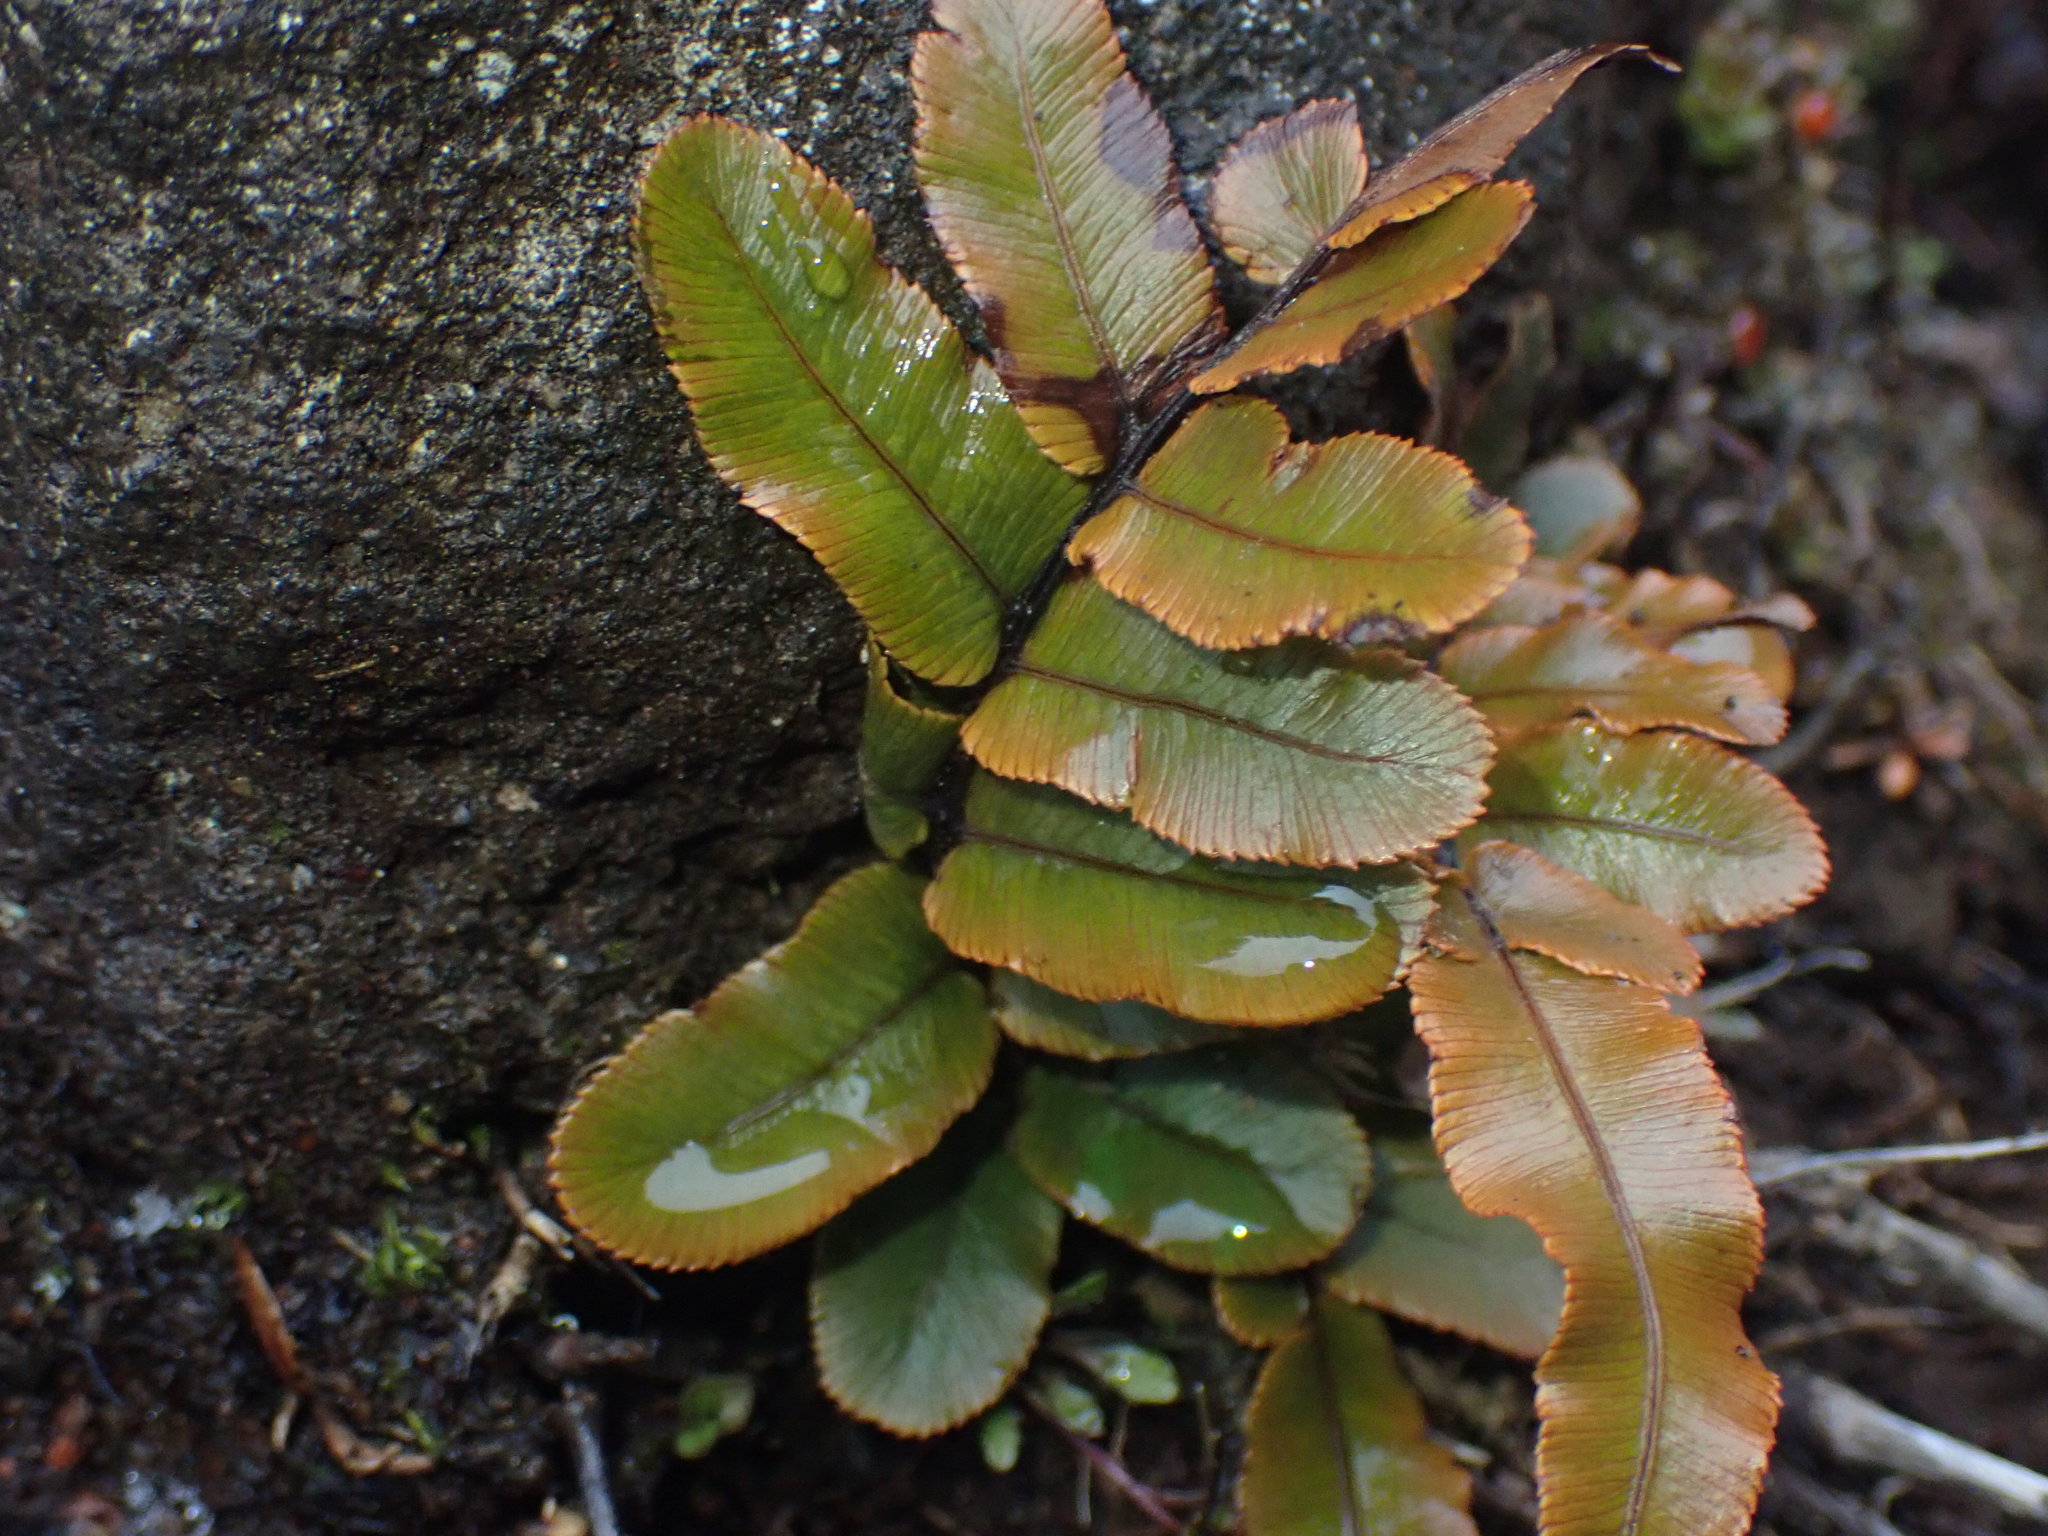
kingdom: Plantae
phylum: Tracheophyta
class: Polypodiopsida
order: Polypodiales
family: Blechnaceae
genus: Parablechnum
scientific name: Parablechnum procerum
